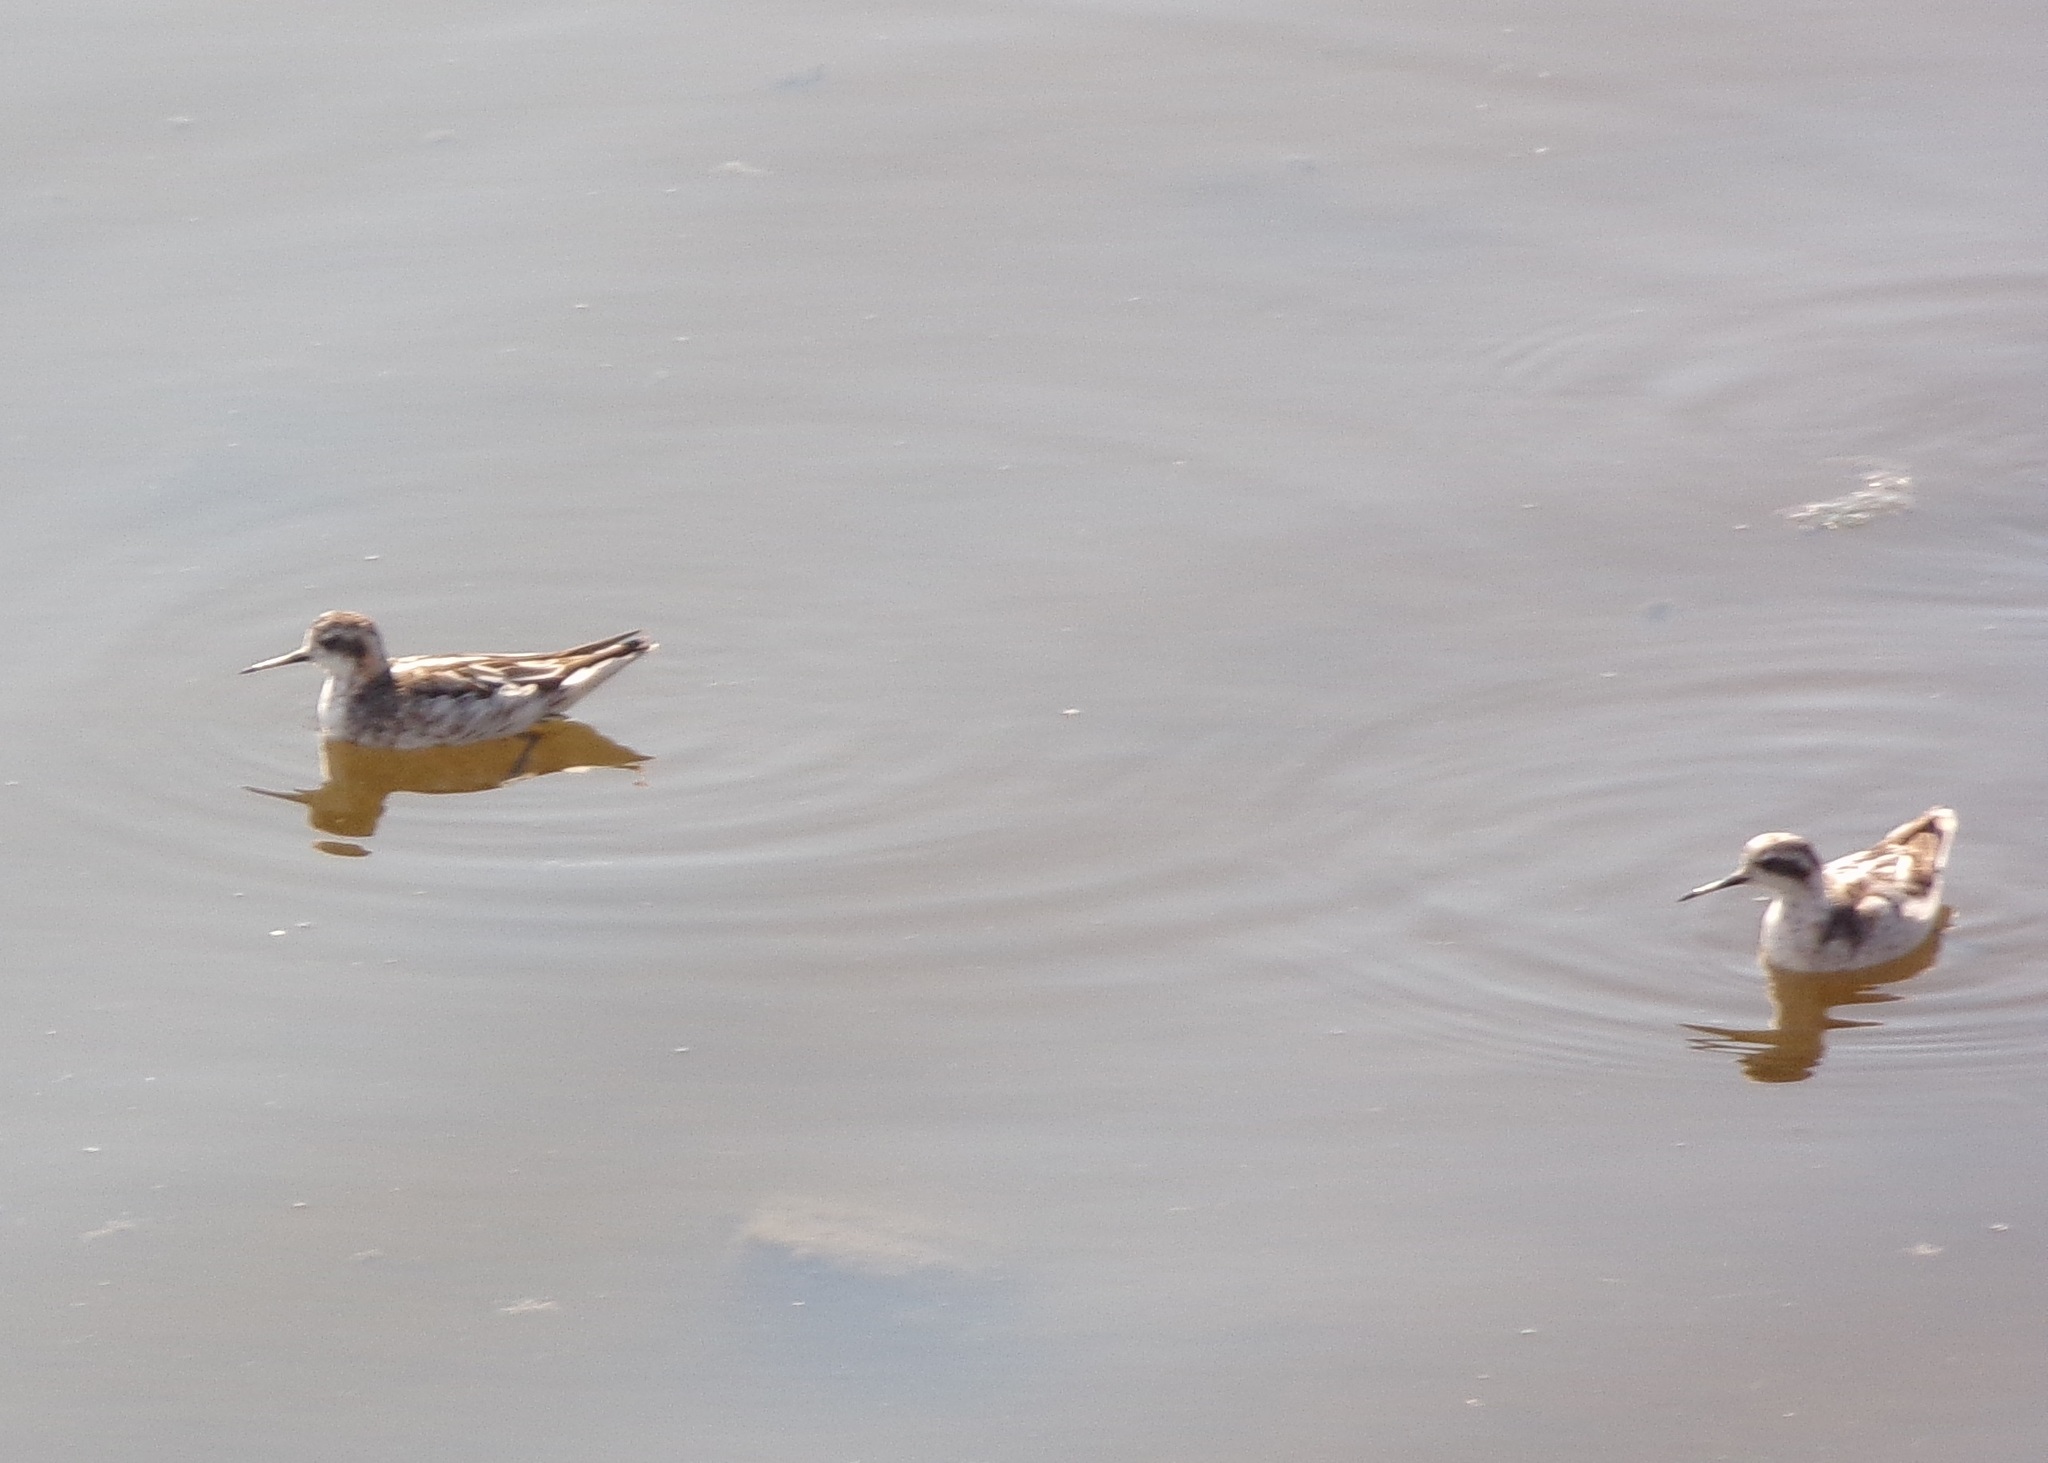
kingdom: Animalia
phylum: Chordata
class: Aves
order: Charadriiformes
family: Scolopacidae
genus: Phalaropus
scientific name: Phalaropus lobatus
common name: Red-necked phalarope
